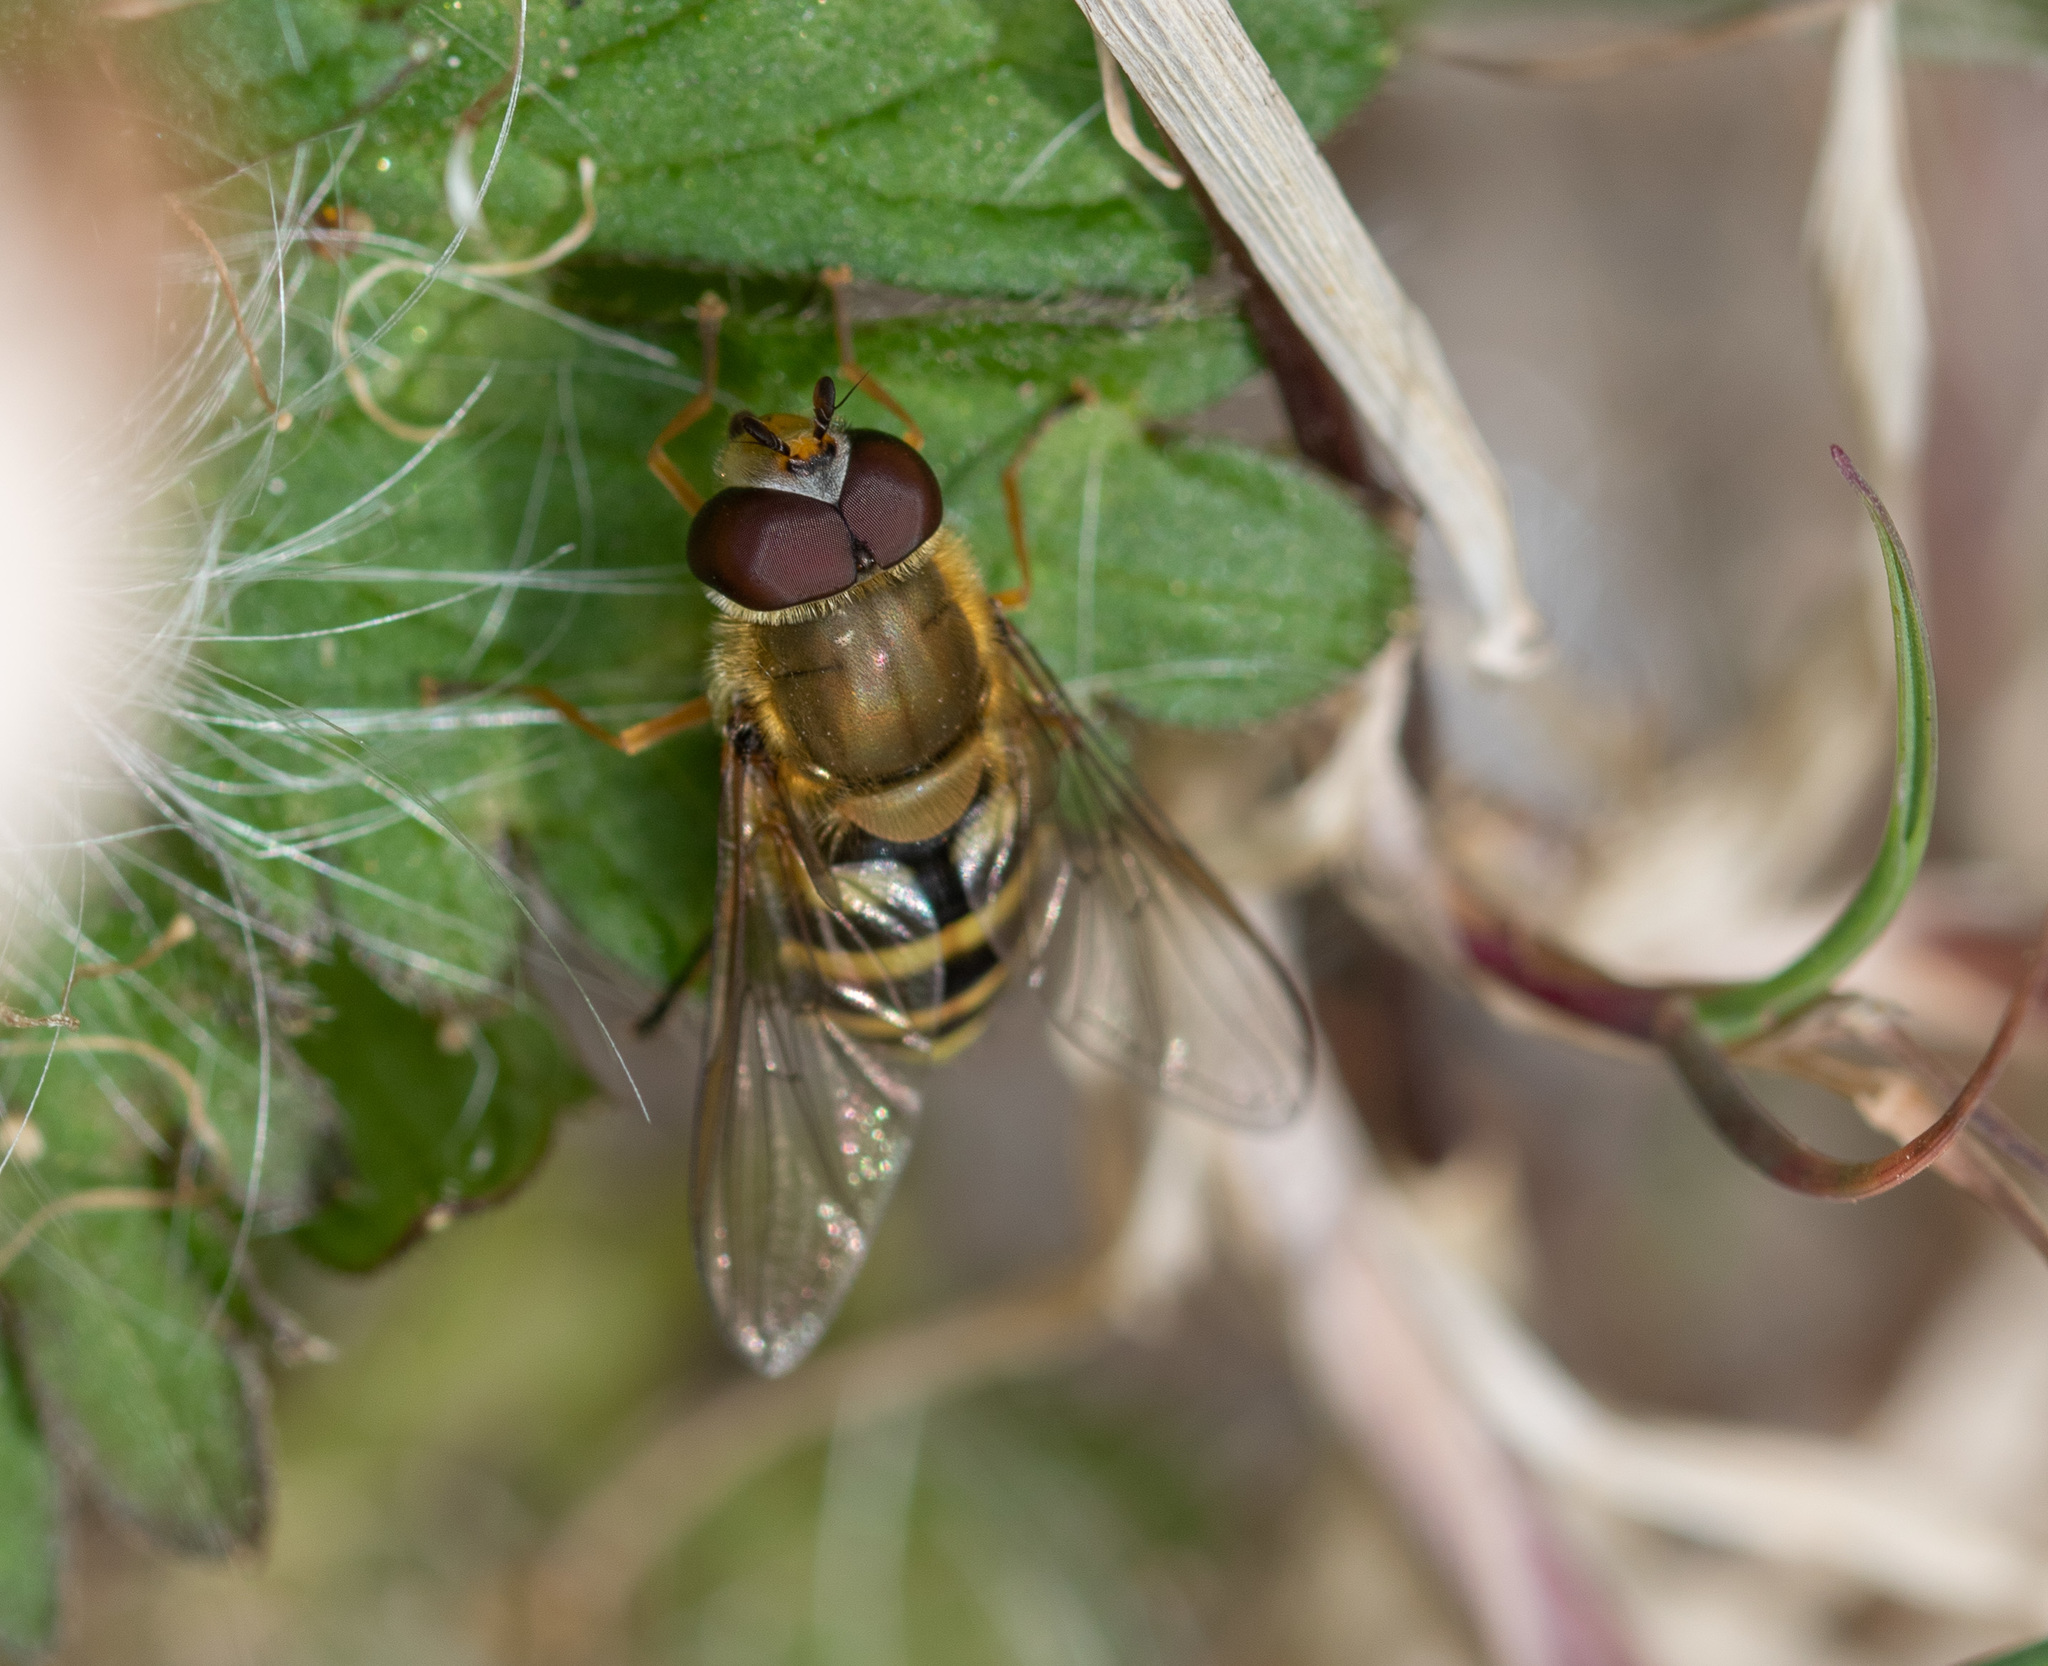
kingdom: Animalia
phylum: Arthropoda
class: Insecta
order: Diptera
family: Syrphidae
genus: Syrphus
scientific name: Syrphus
